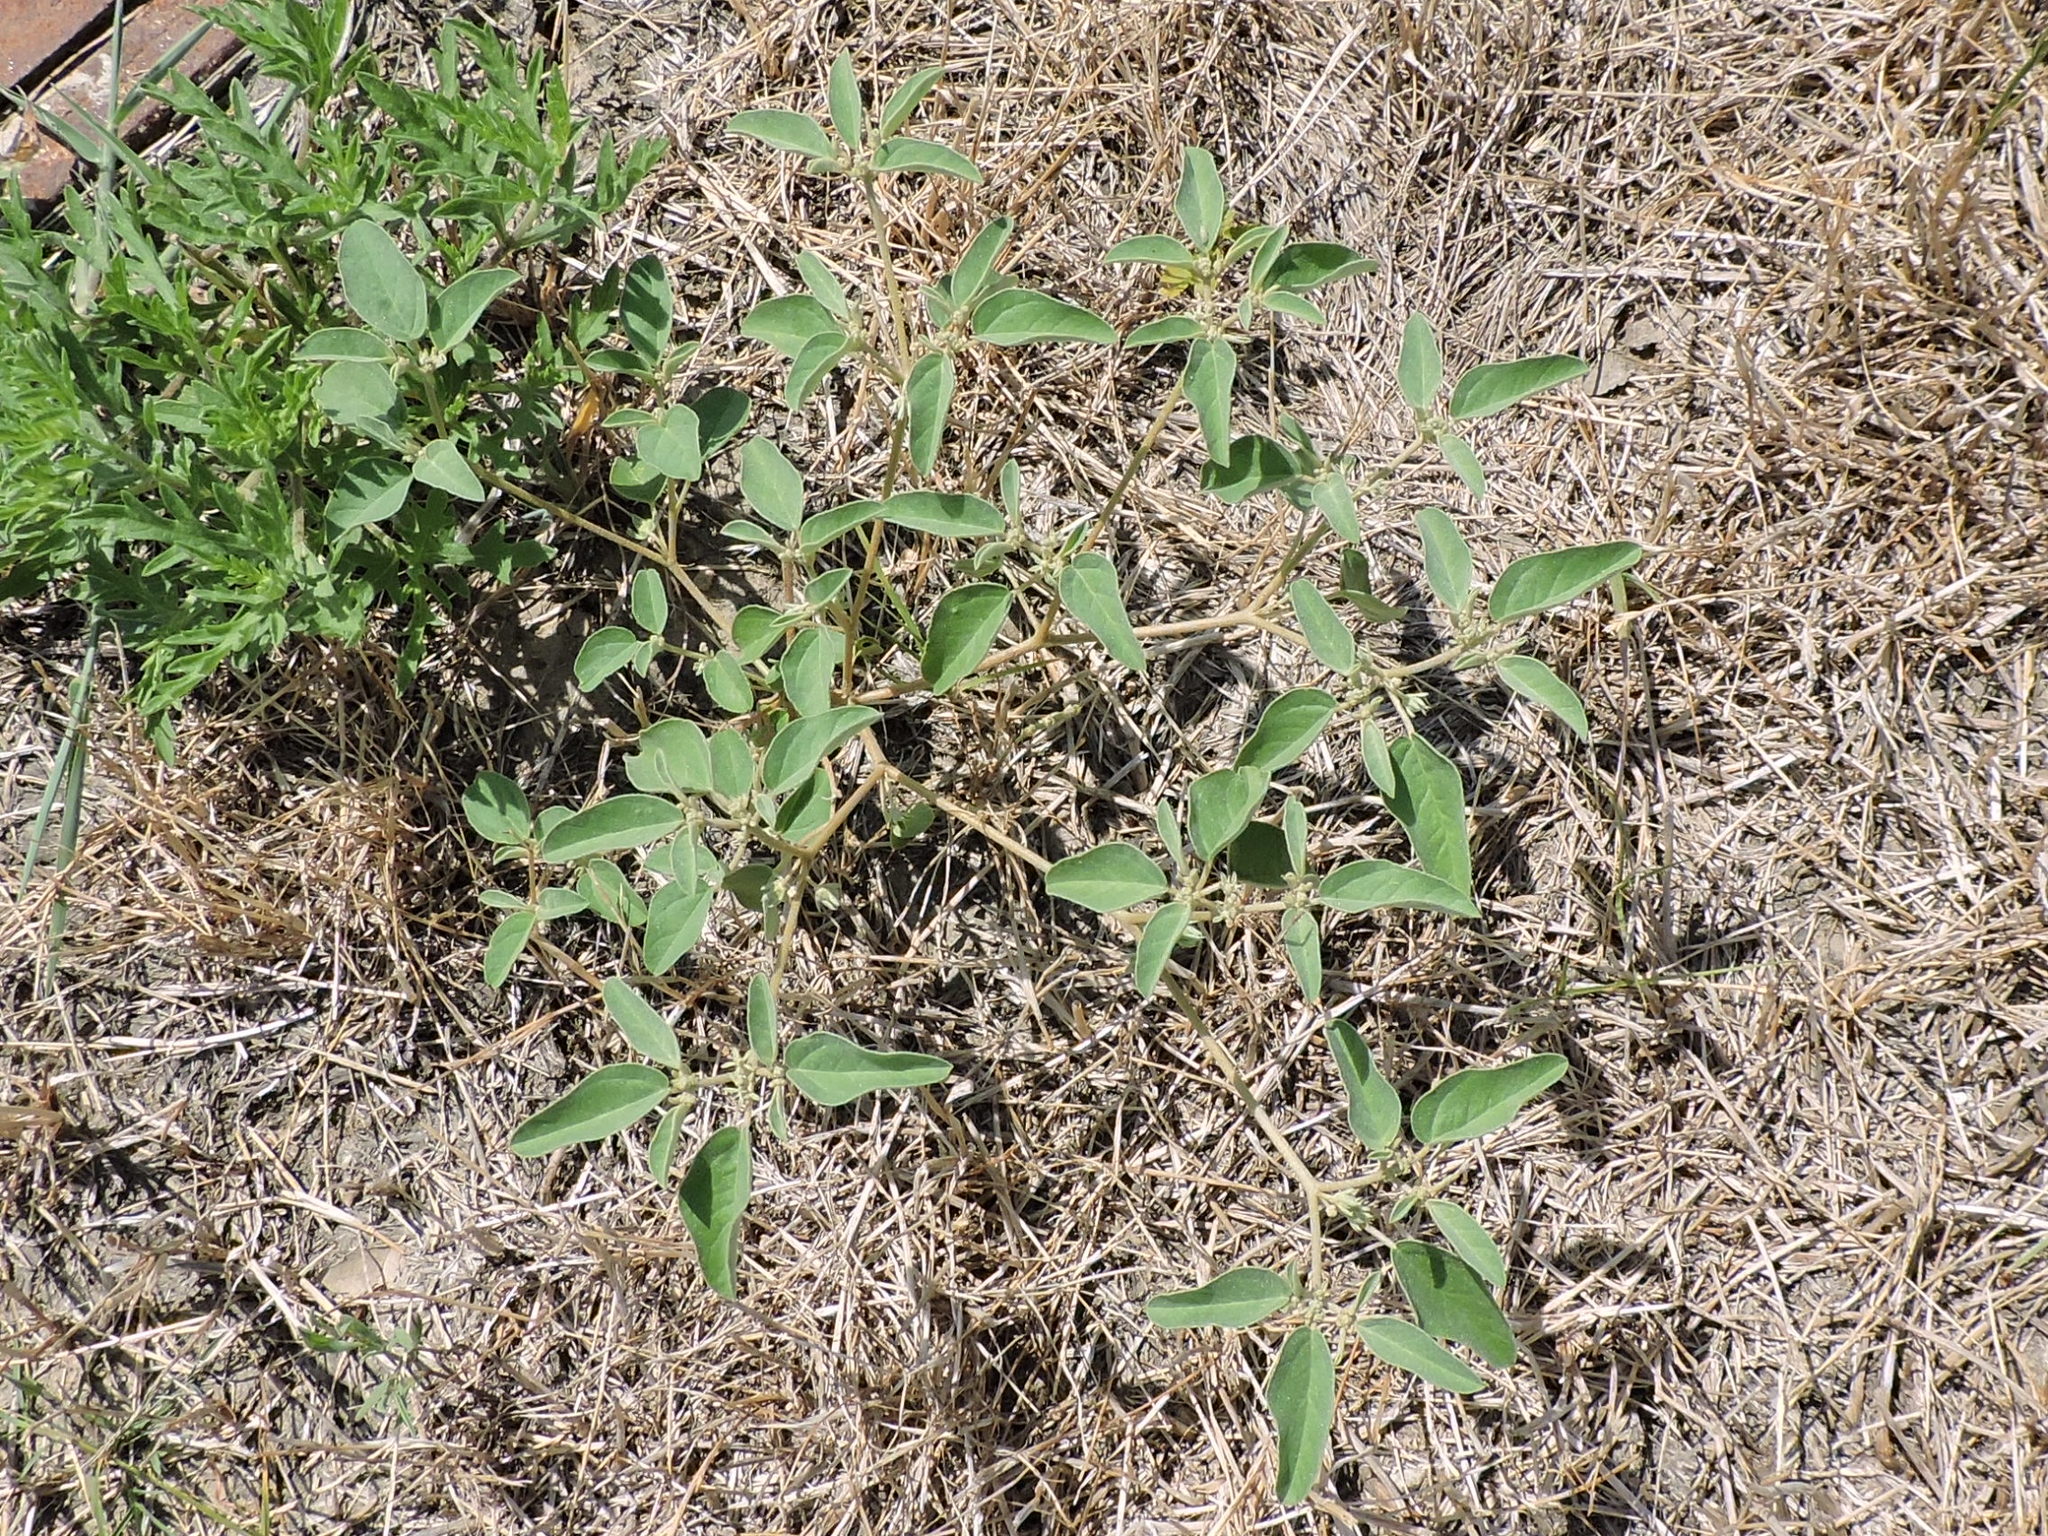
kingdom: Plantae
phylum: Tracheophyta
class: Magnoliopsida
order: Malpighiales
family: Euphorbiaceae
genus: Croton
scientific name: Croton monanthogynus
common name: One-seed croton
